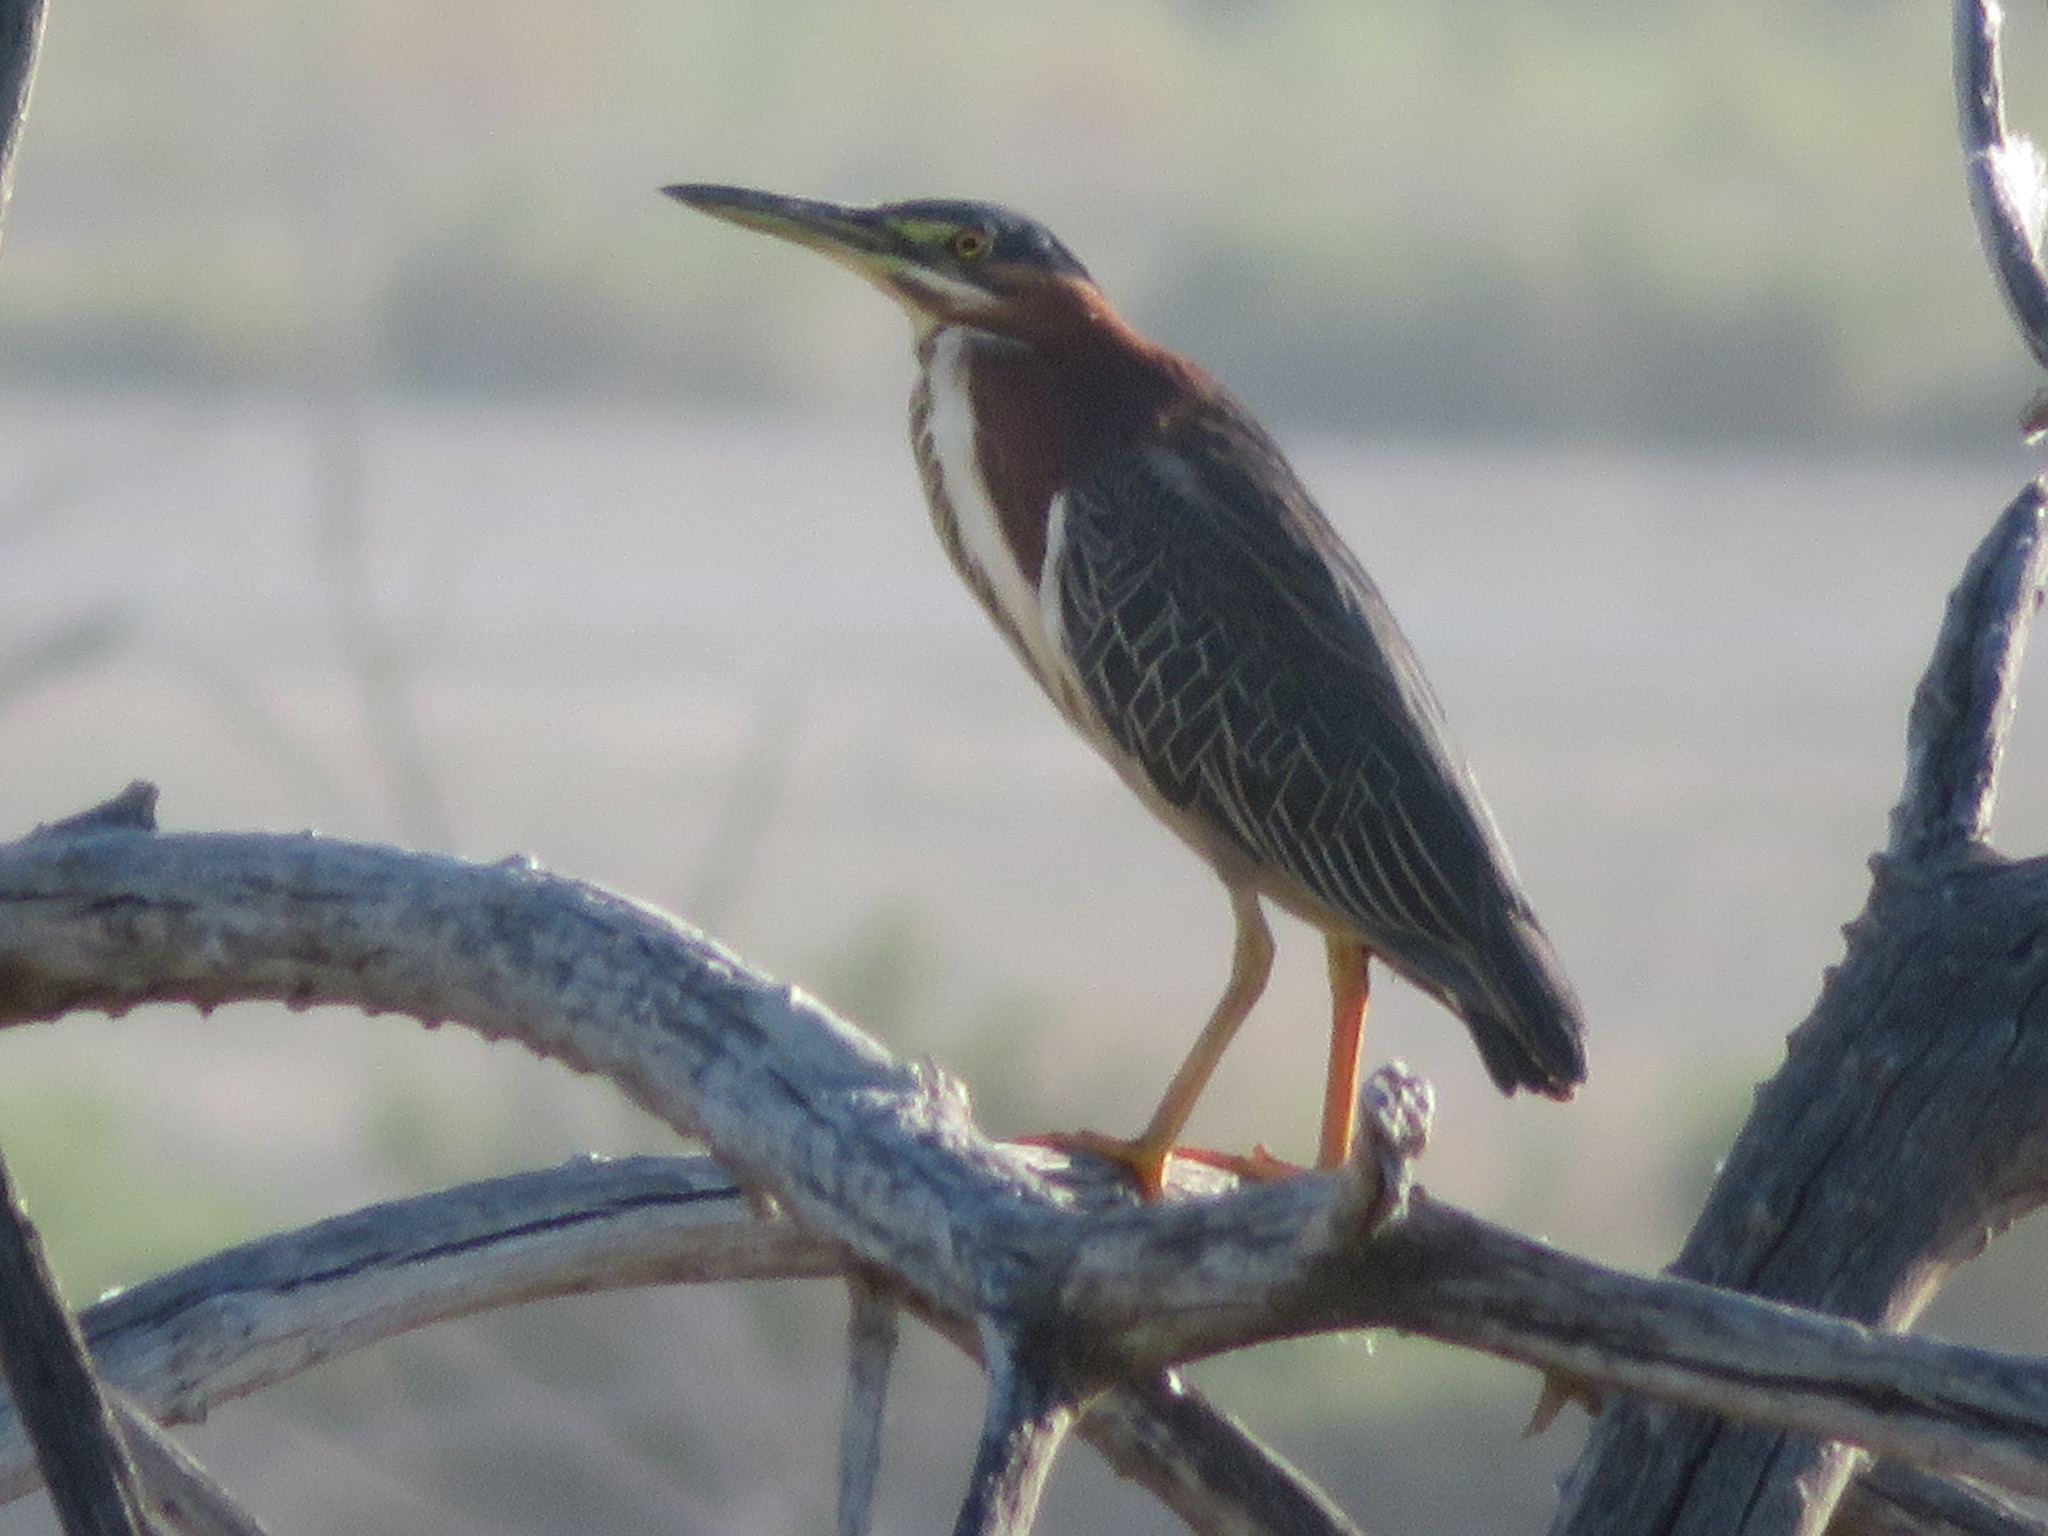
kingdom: Animalia
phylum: Chordata
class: Aves
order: Pelecaniformes
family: Ardeidae
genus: Butorides
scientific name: Butorides virescens
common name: Green heron
